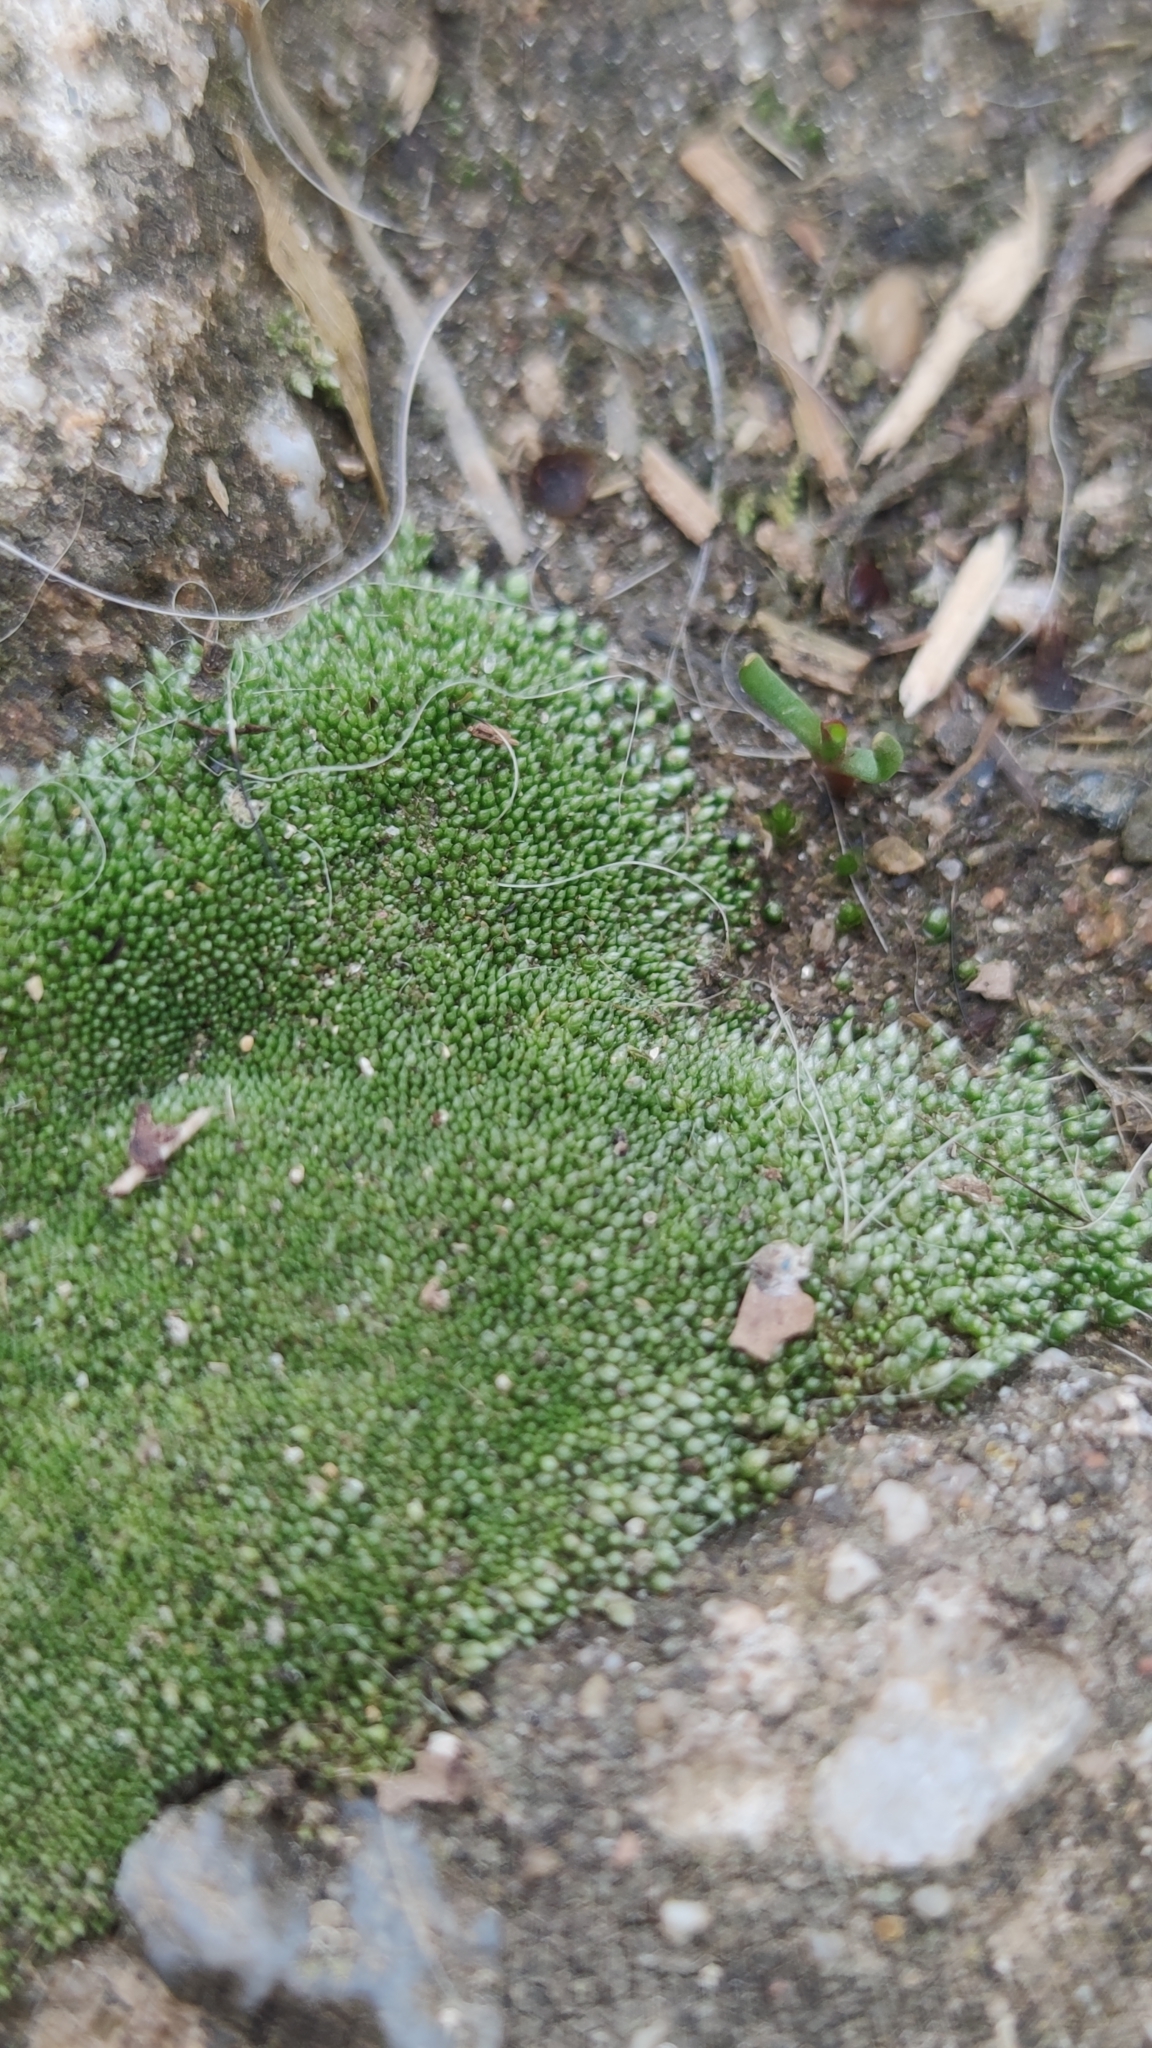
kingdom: Plantae
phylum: Bryophyta
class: Bryopsida
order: Bryales
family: Bryaceae
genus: Bryum
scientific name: Bryum argenteum
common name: Silver-moss
